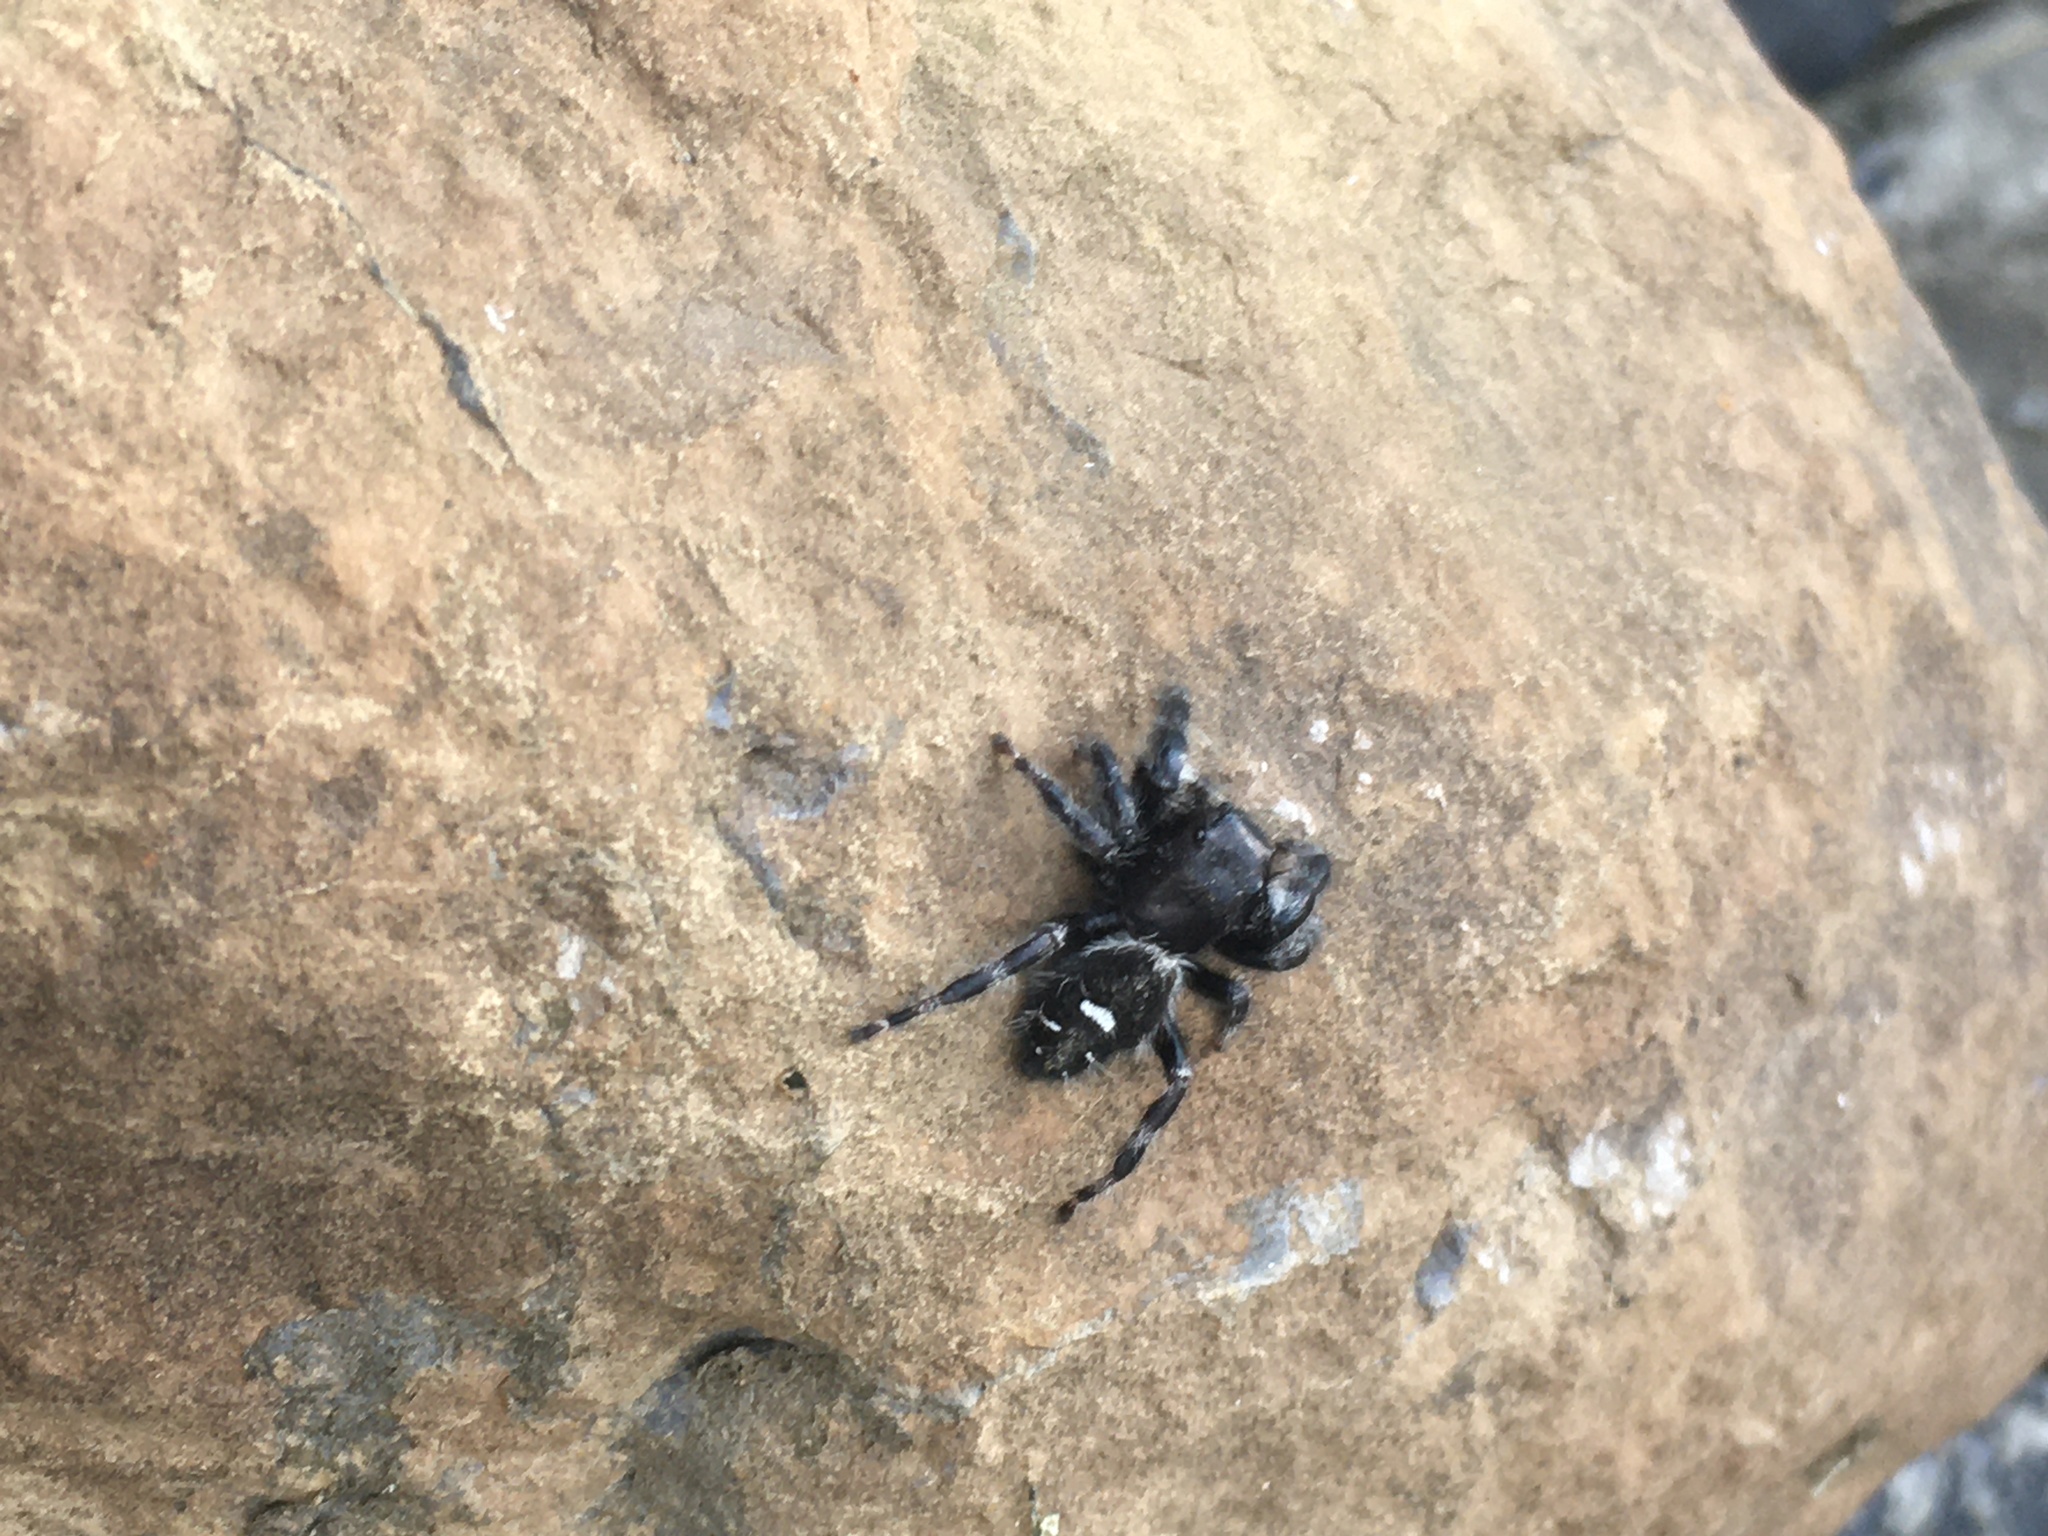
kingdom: Animalia
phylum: Arthropoda
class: Arachnida
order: Araneae
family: Salticidae
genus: Phidippus
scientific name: Phidippus audax
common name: Bold jumper
